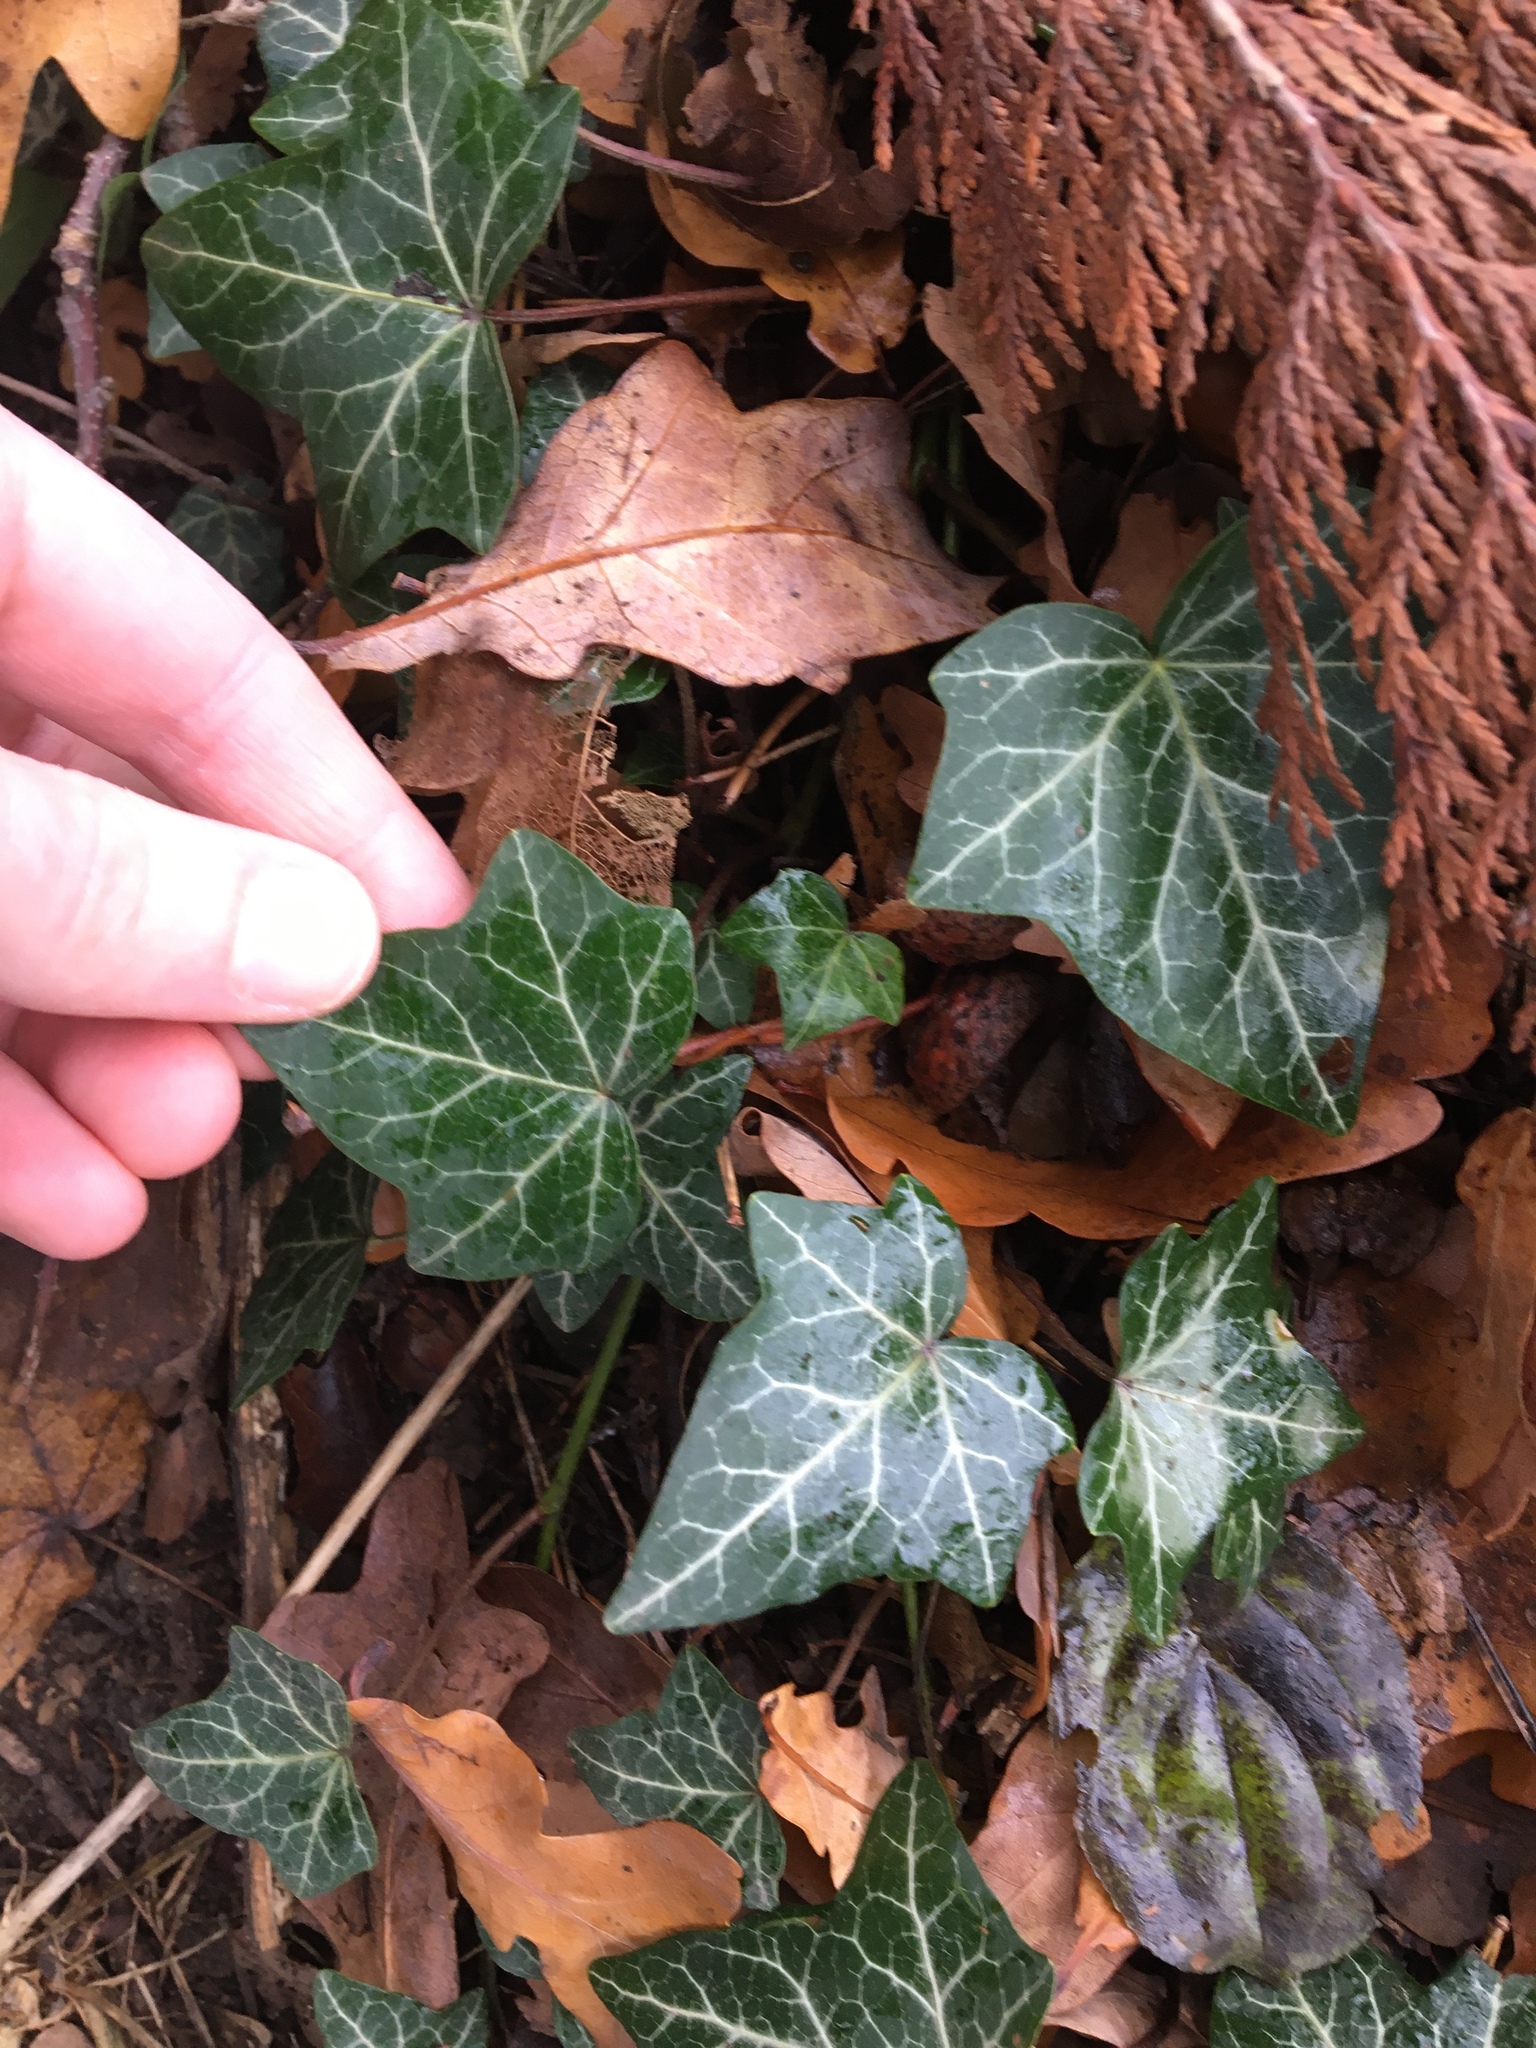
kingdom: Plantae
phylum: Tracheophyta
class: Magnoliopsida
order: Apiales
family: Araliaceae
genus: Hedera
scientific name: Hedera helix
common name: Ivy
